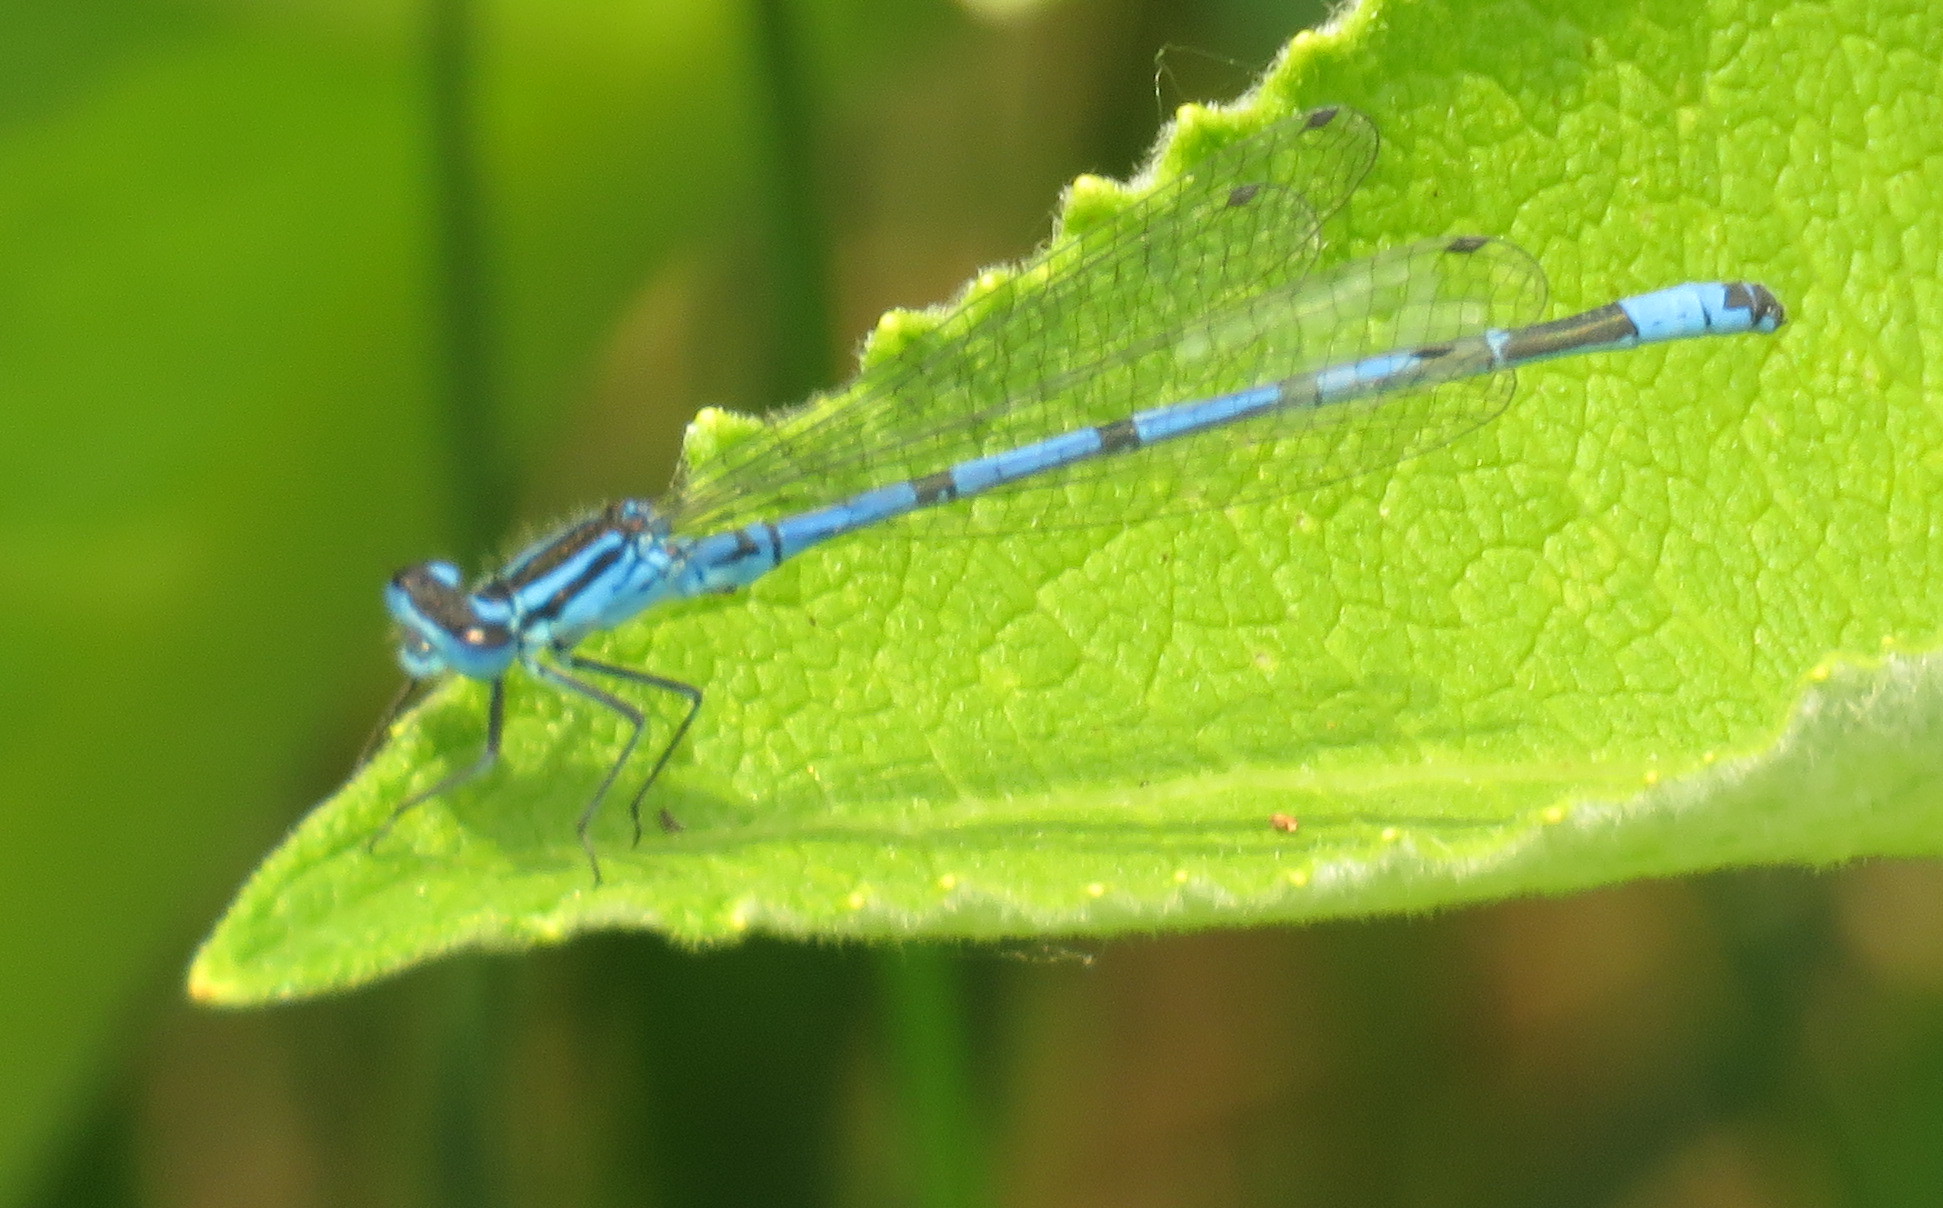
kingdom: Animalia
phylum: Arthropoda
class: Insecta
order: Odonata
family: Coenagrionidae
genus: Coenagrion
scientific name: Coenagrion puella
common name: Azure damselfly
